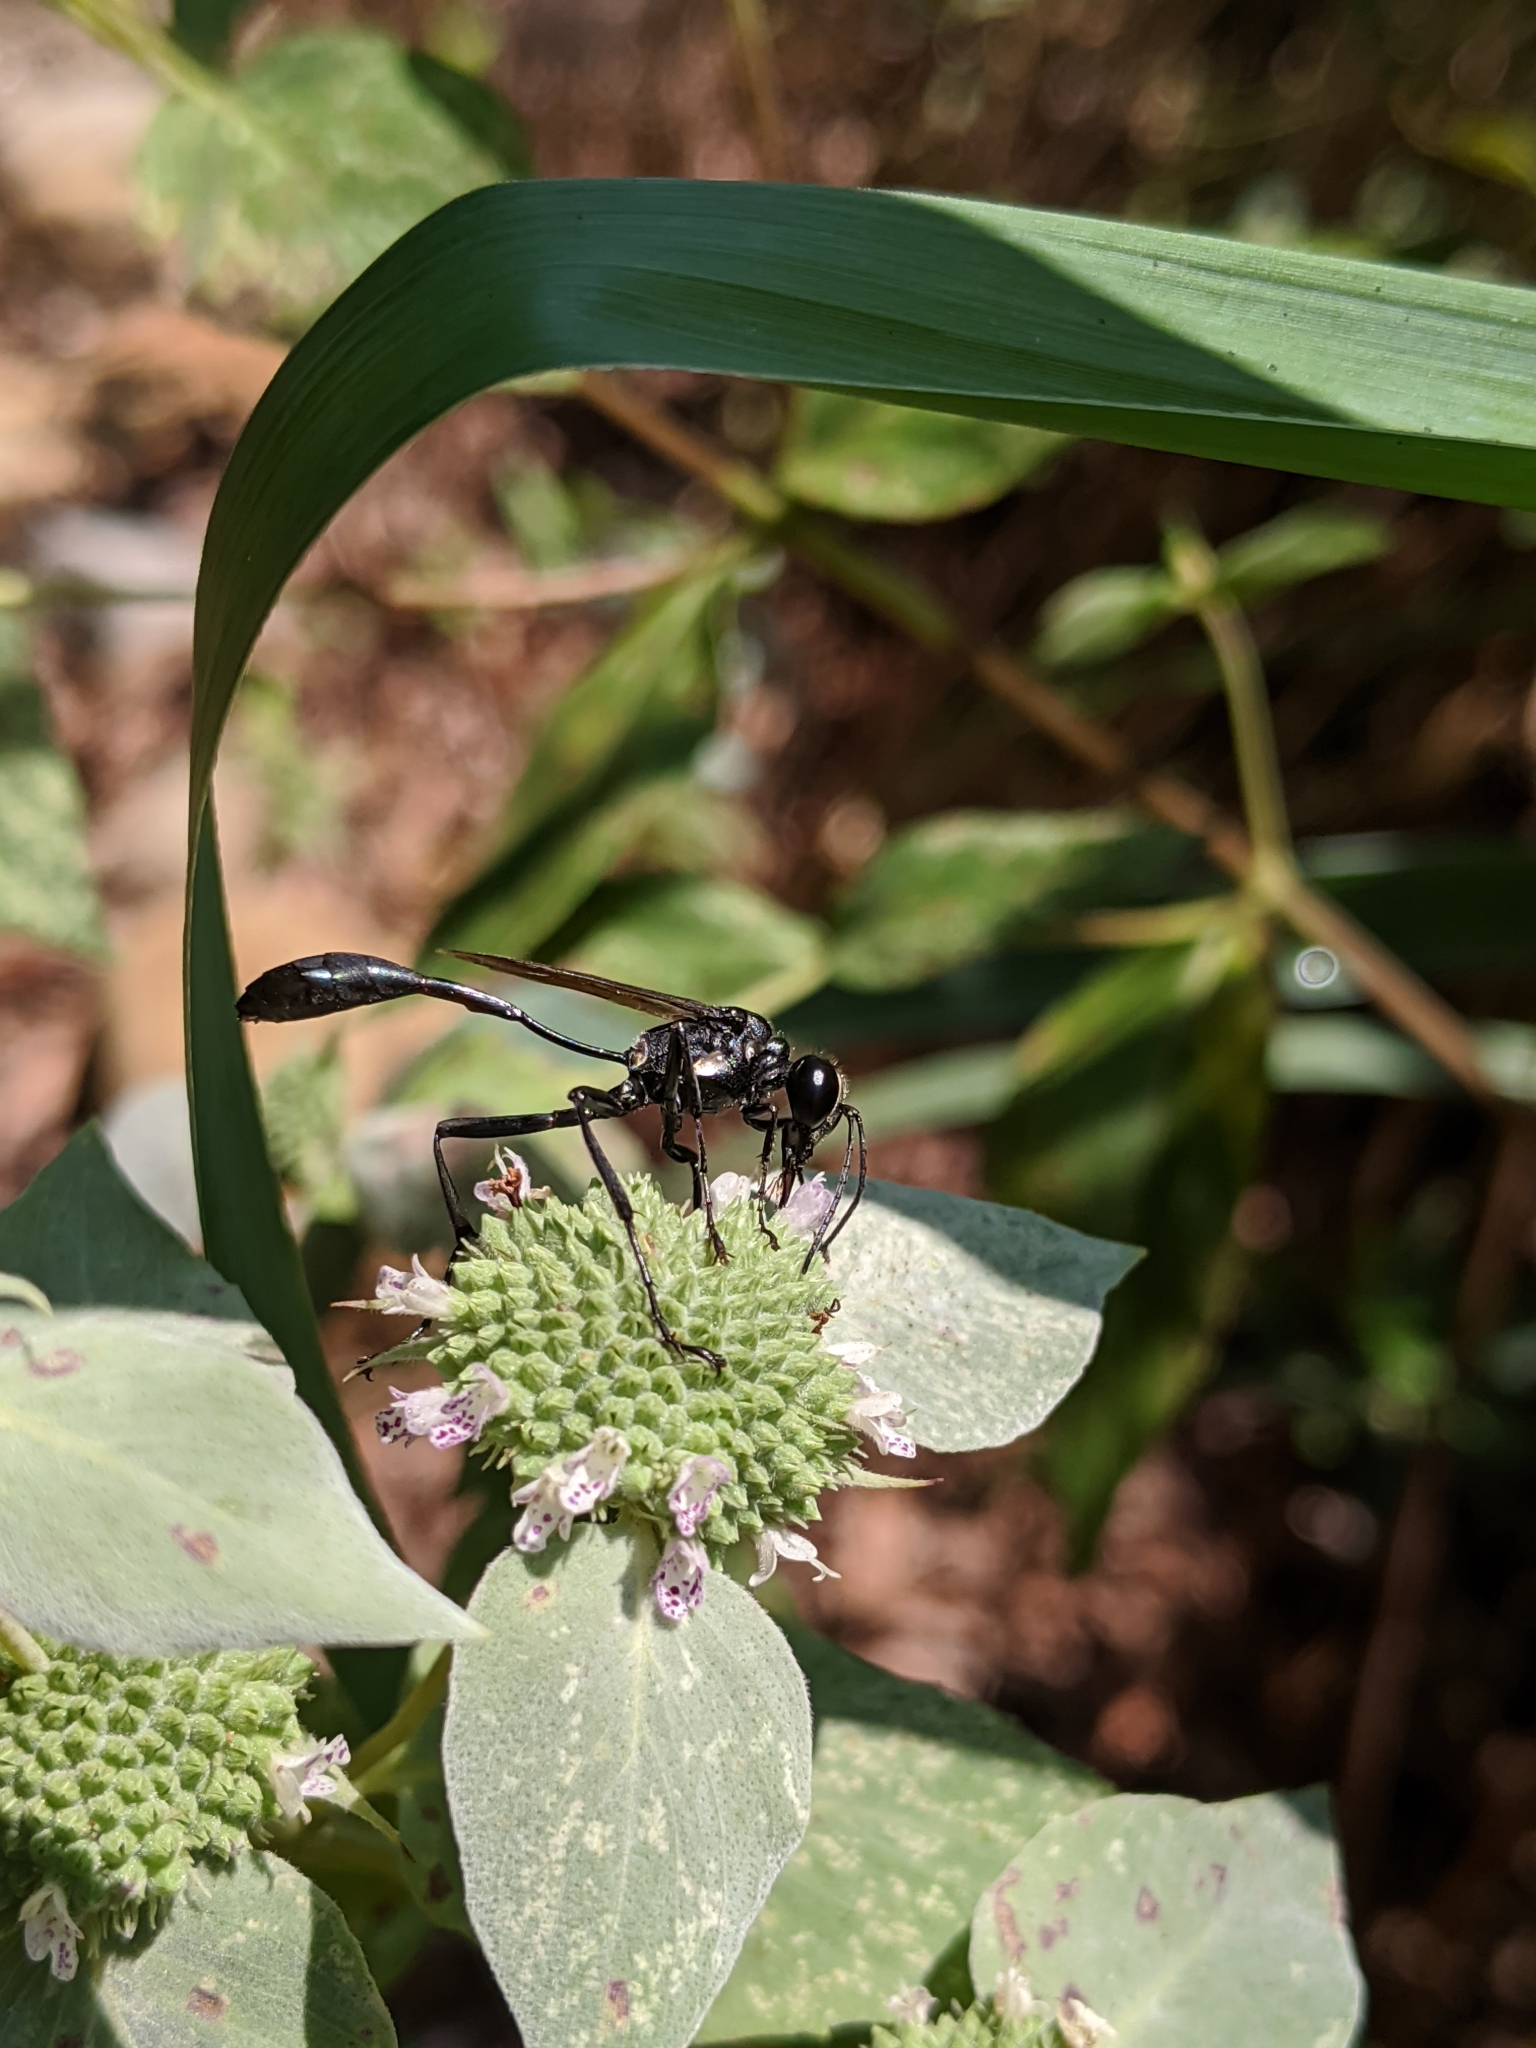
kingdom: Animalia
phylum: Arthropoda
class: Insecta
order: Hymenoptera
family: Sphecidae
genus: Eremnophila
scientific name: Eremnophila aureonotata
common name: Gold-marked thread-waisted wasp
